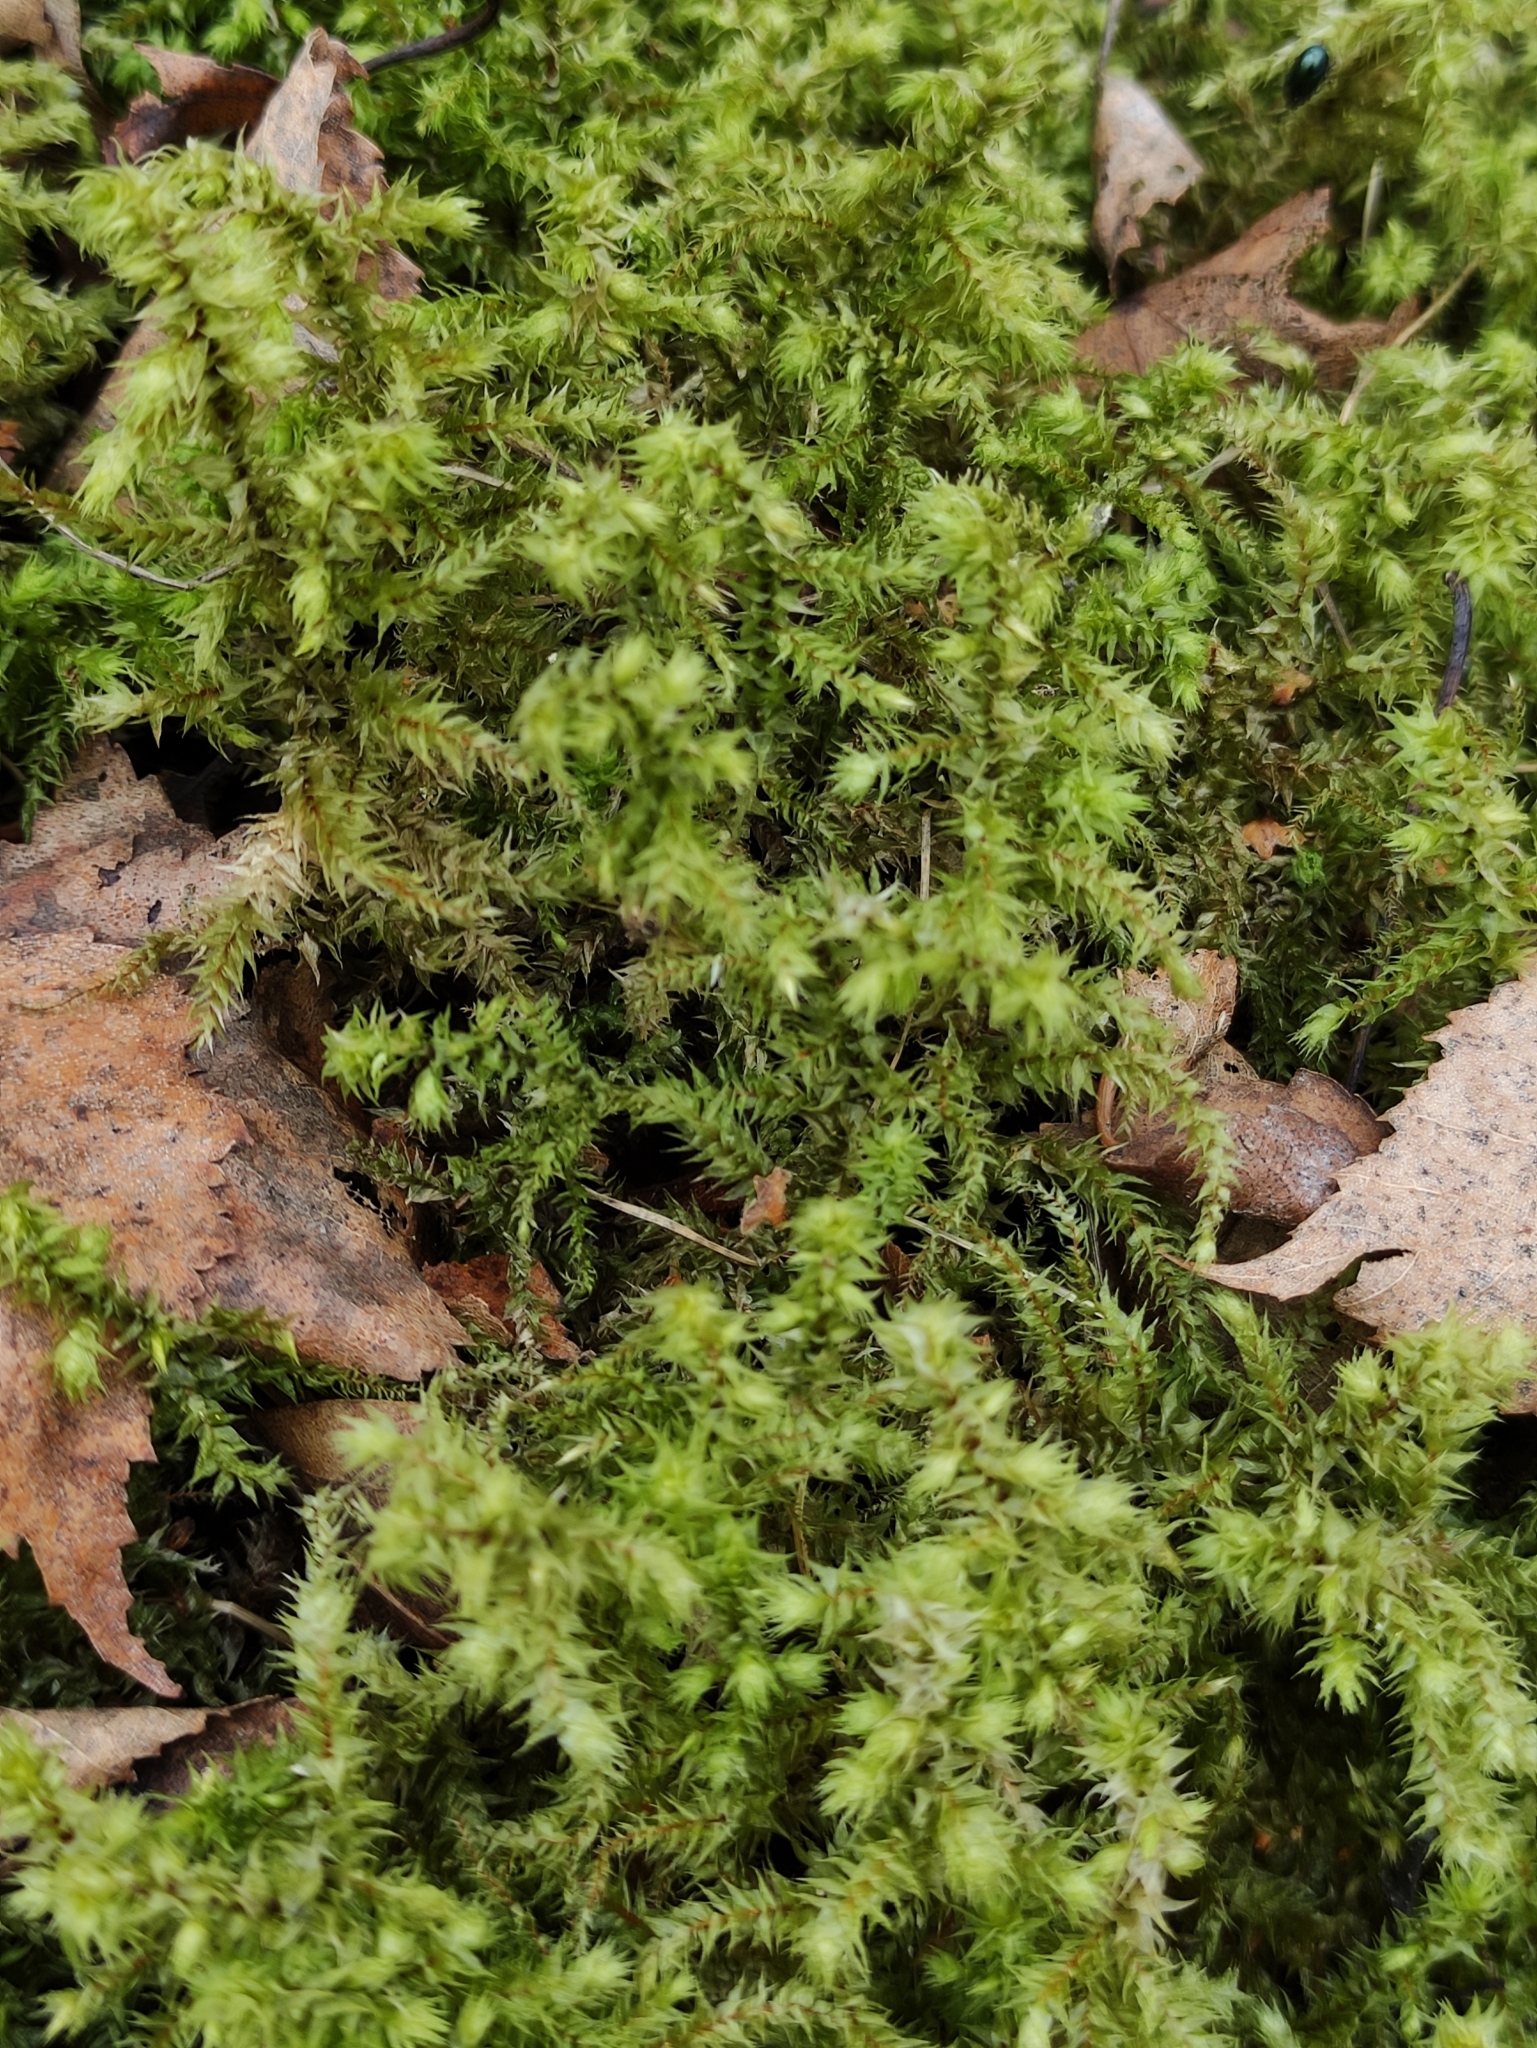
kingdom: Plantae
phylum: Bryophyta
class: Bryopsida
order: Hypnales
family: Hylocomiaceae
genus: Hylocomiadelphus
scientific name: Hylocomiadelphus triquetrus
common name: Rough goose neck moss
